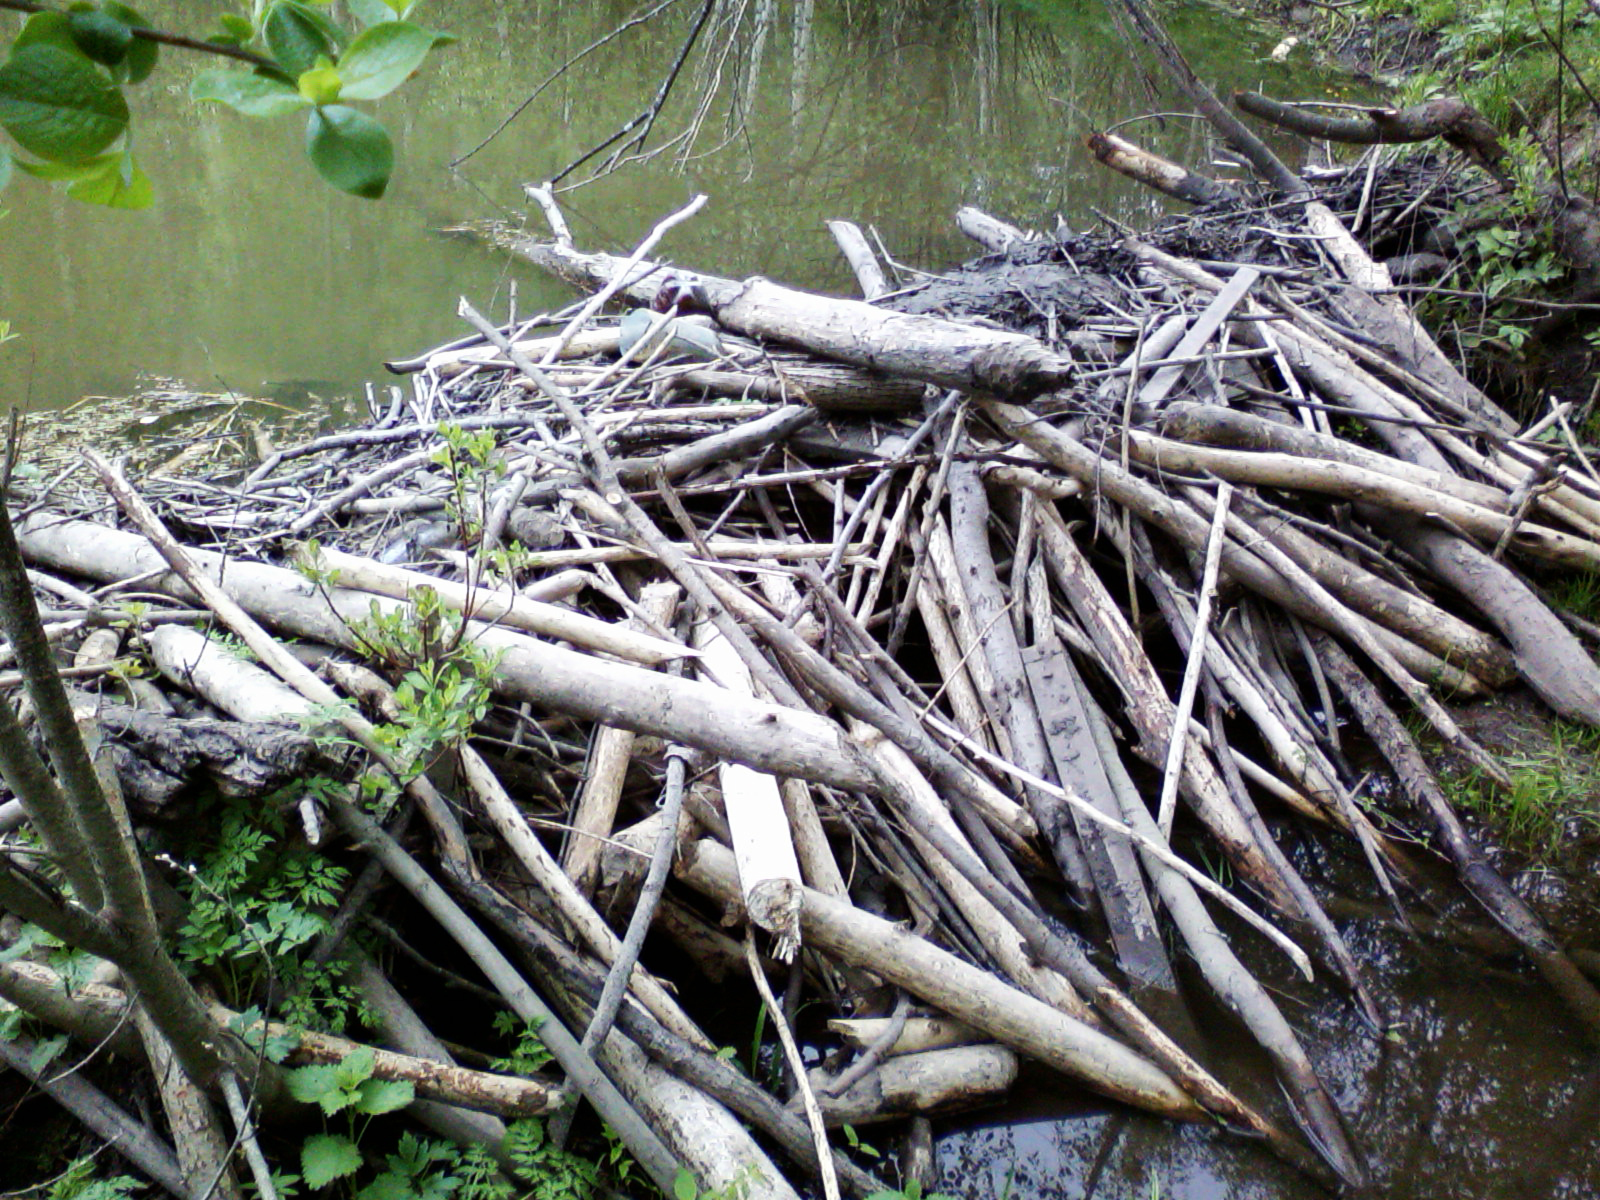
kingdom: Animalia
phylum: Chordata
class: Mammalia
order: Rodentia
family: Castoridae
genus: Castor
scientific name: Castor fiber
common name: Eurasian beaver
